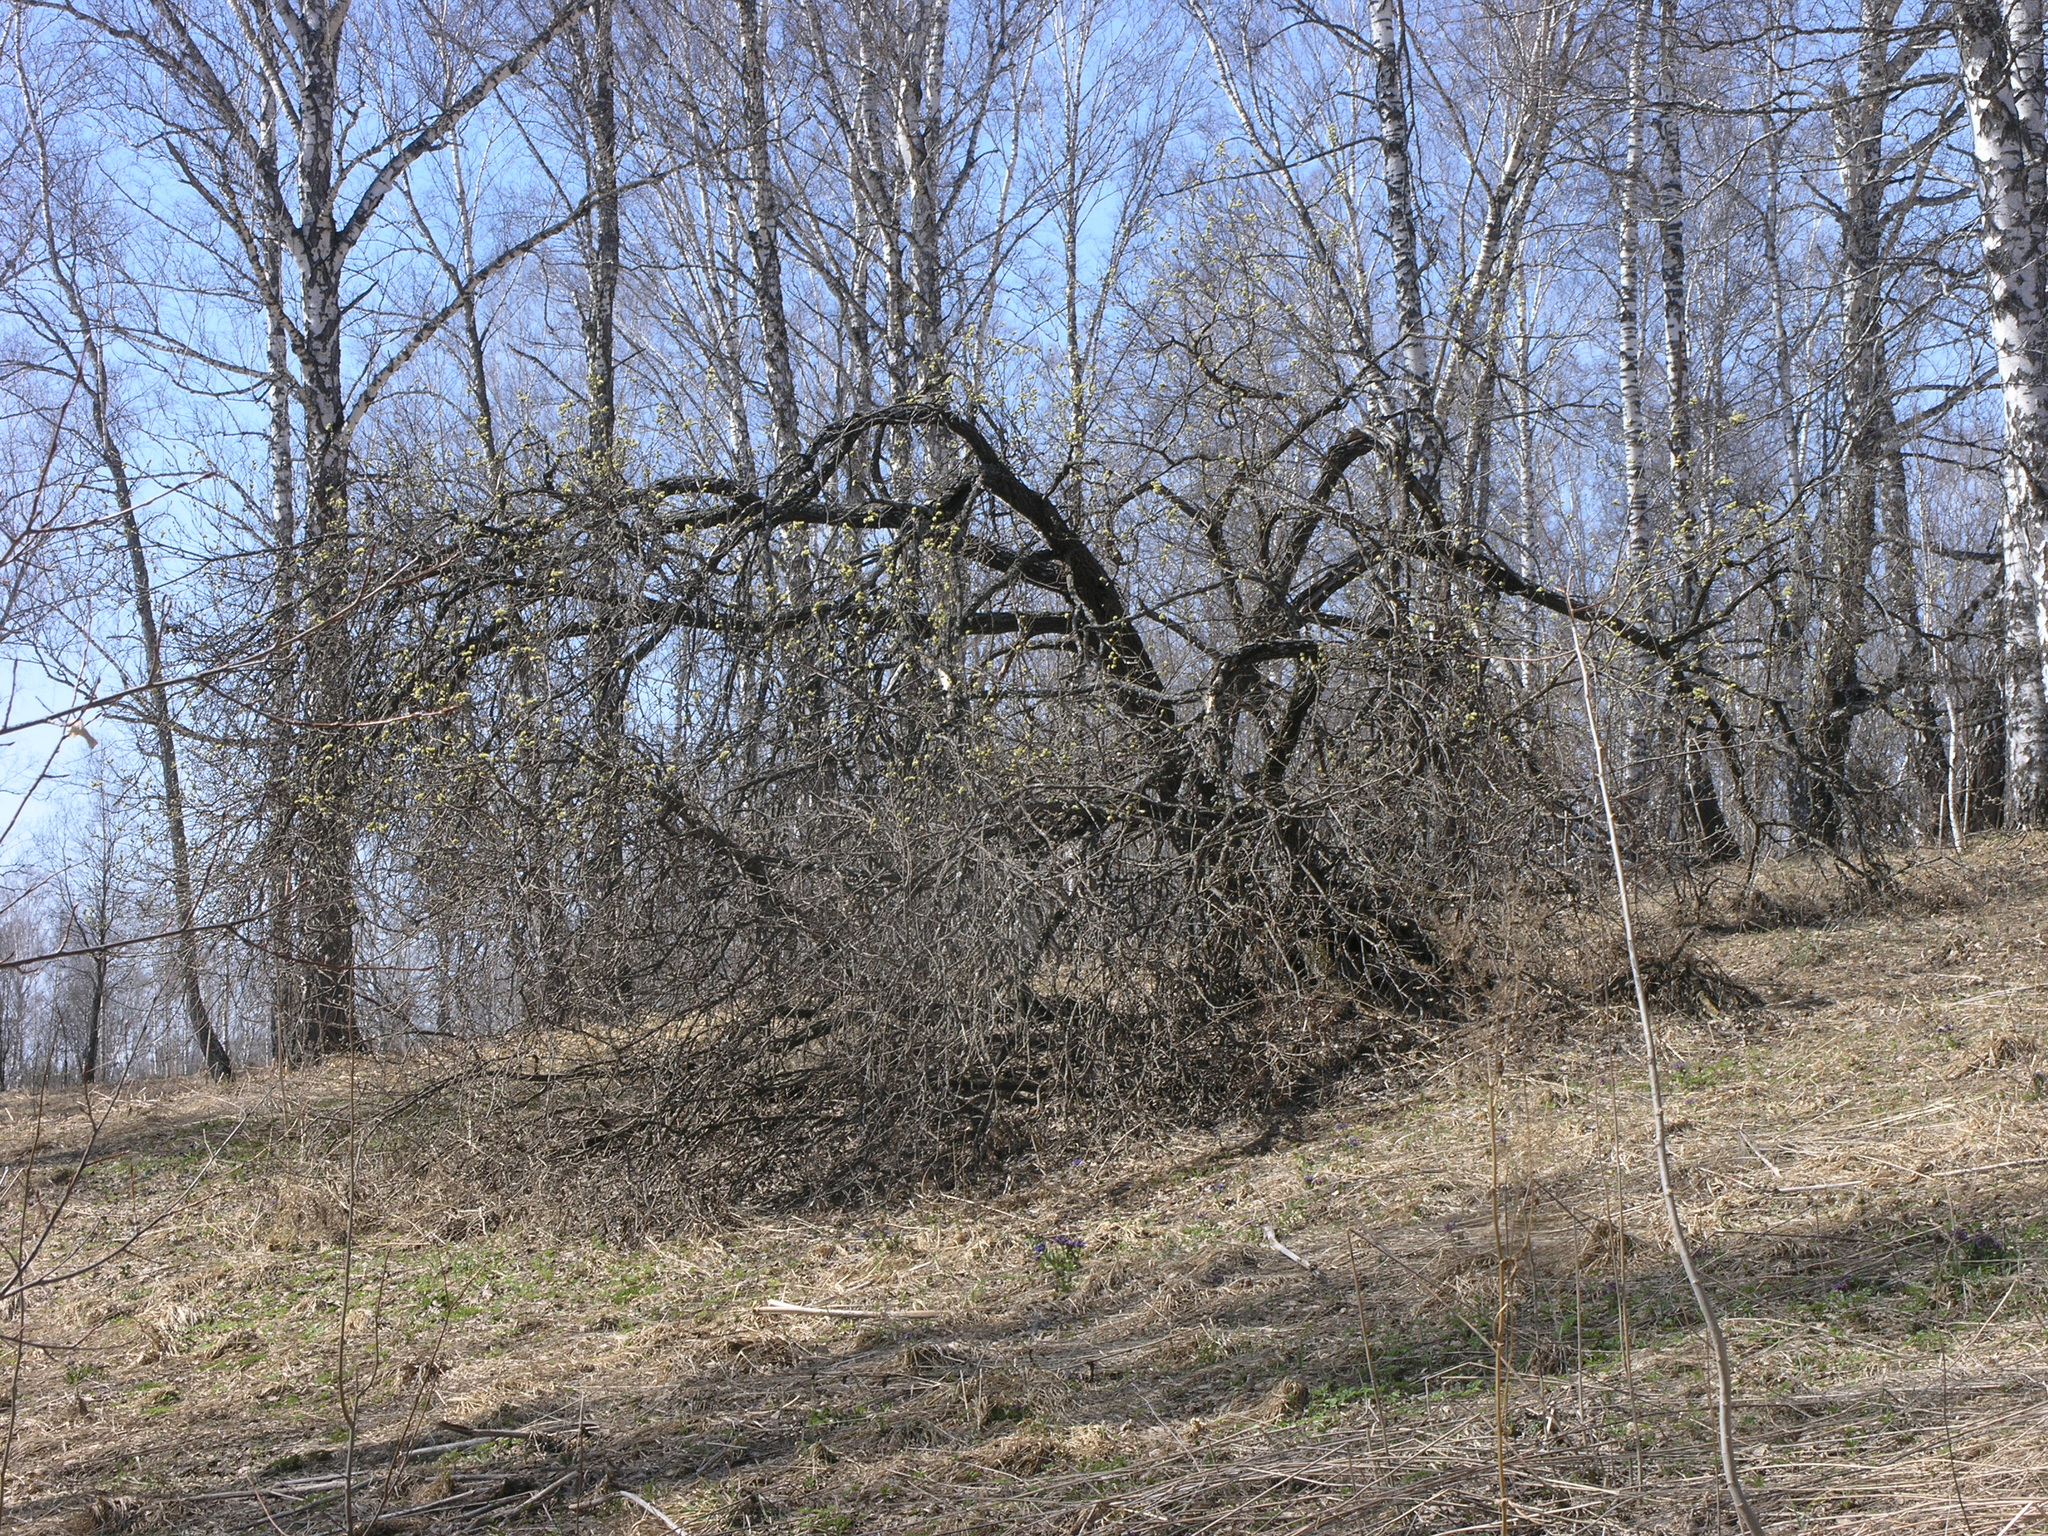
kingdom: Plantae
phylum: Tracheophyta
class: Magnoliopsida
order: Malpighiales
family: Salicaceae
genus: Salix
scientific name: Salix caprea
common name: Goat willow
